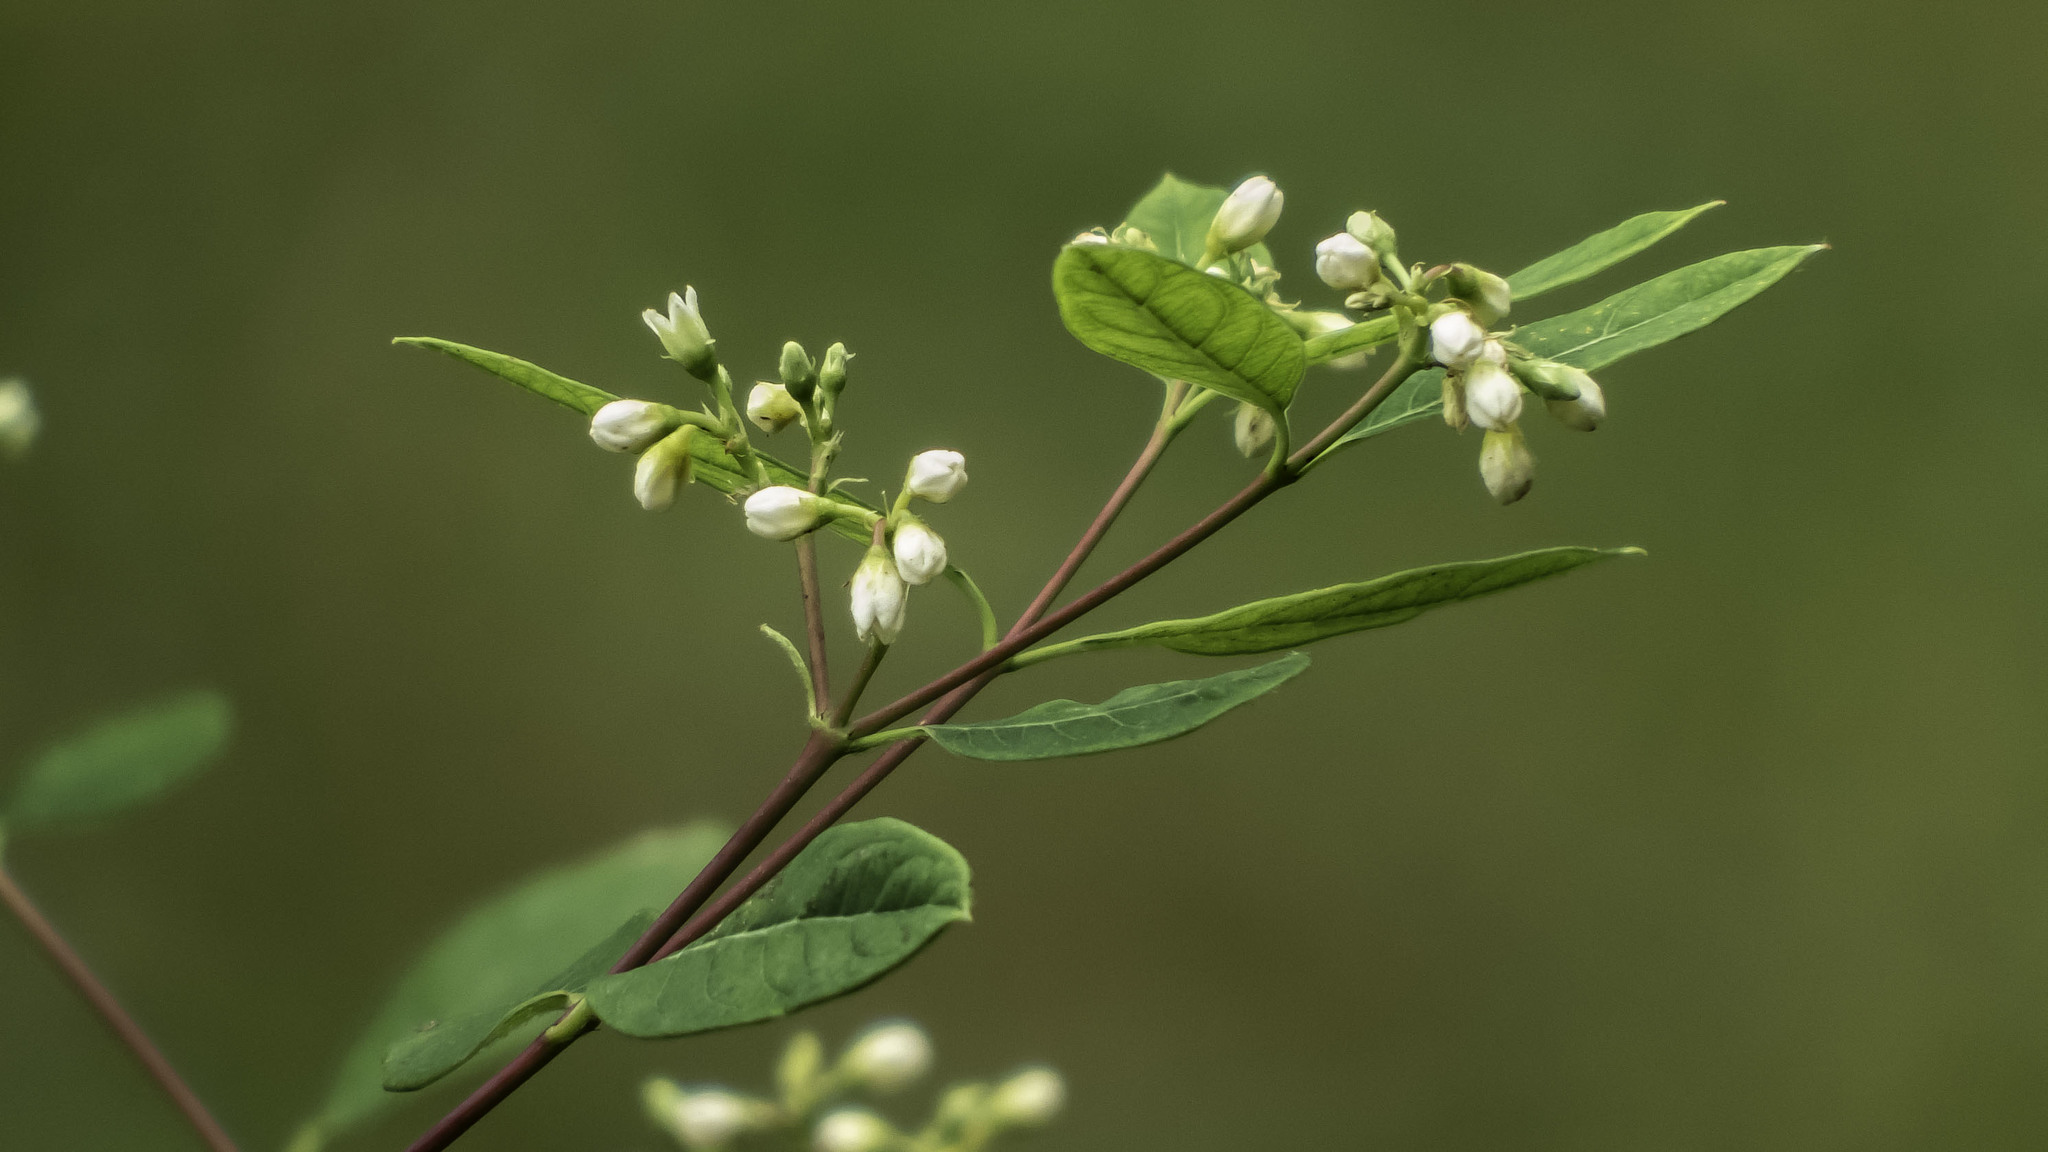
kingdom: Plantae
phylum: Tracheophyta
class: Magnoliopsida
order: Gentianales
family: Apocynaceae
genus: Apocynum
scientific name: Apocynum cannabinum
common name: Hemp dogbane
